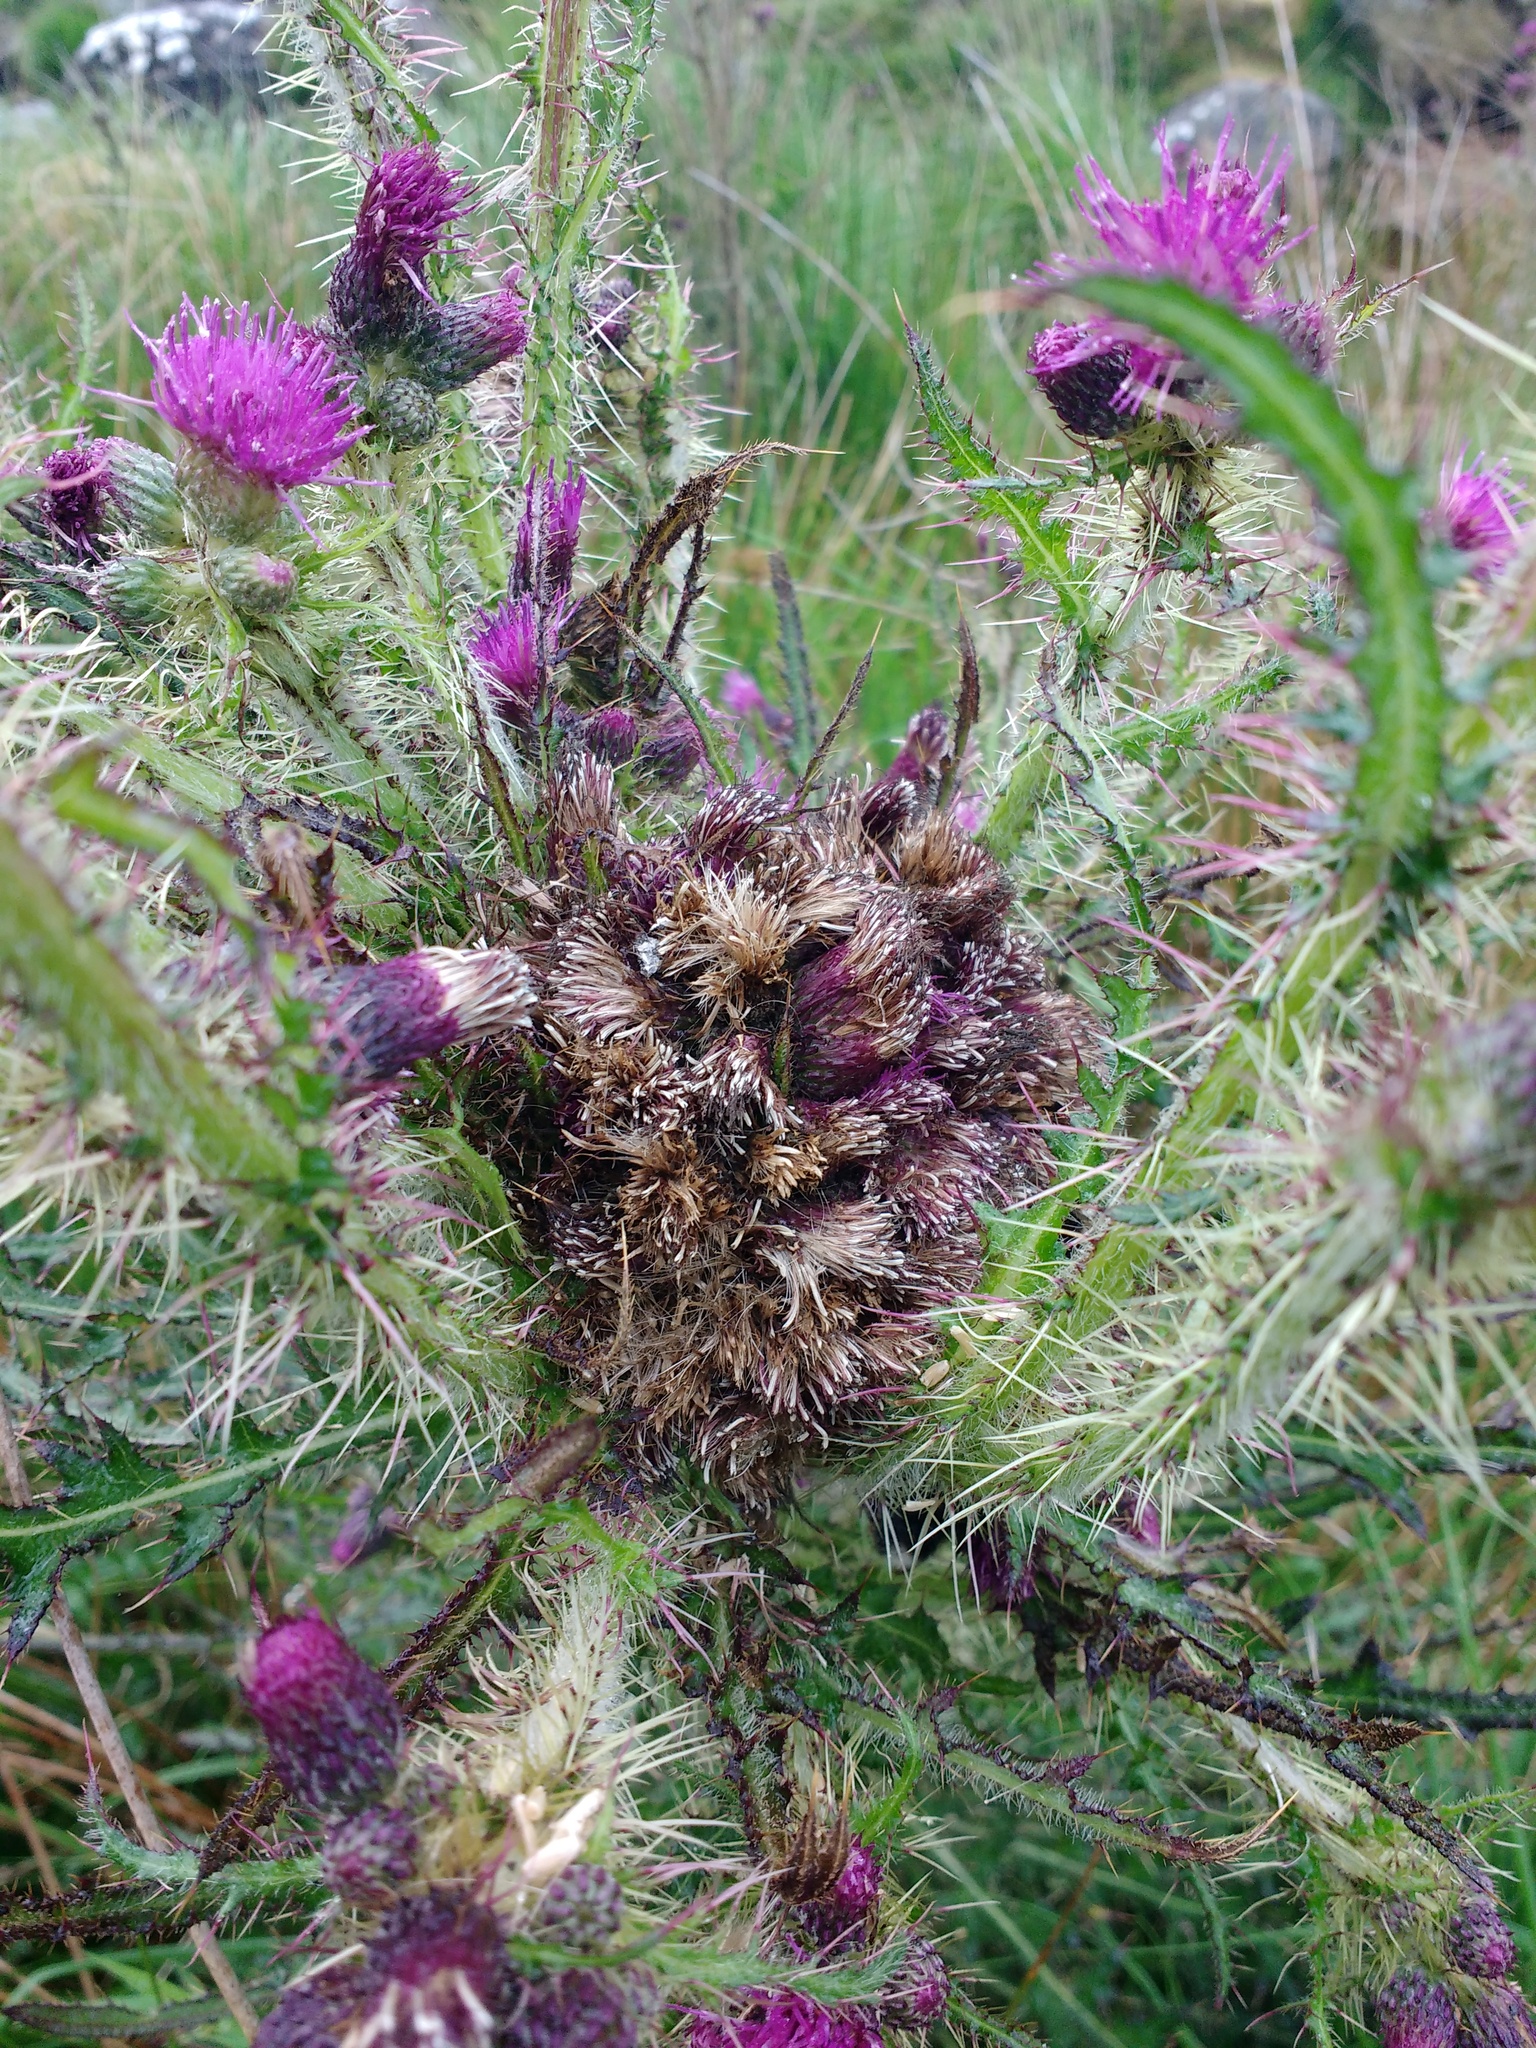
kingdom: Plantae
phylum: Tracheophyta
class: Magnoliopsida
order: Asterales
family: Asteraceae
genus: Cirsium
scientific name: Cirsium palustre
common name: Marsh thistle
